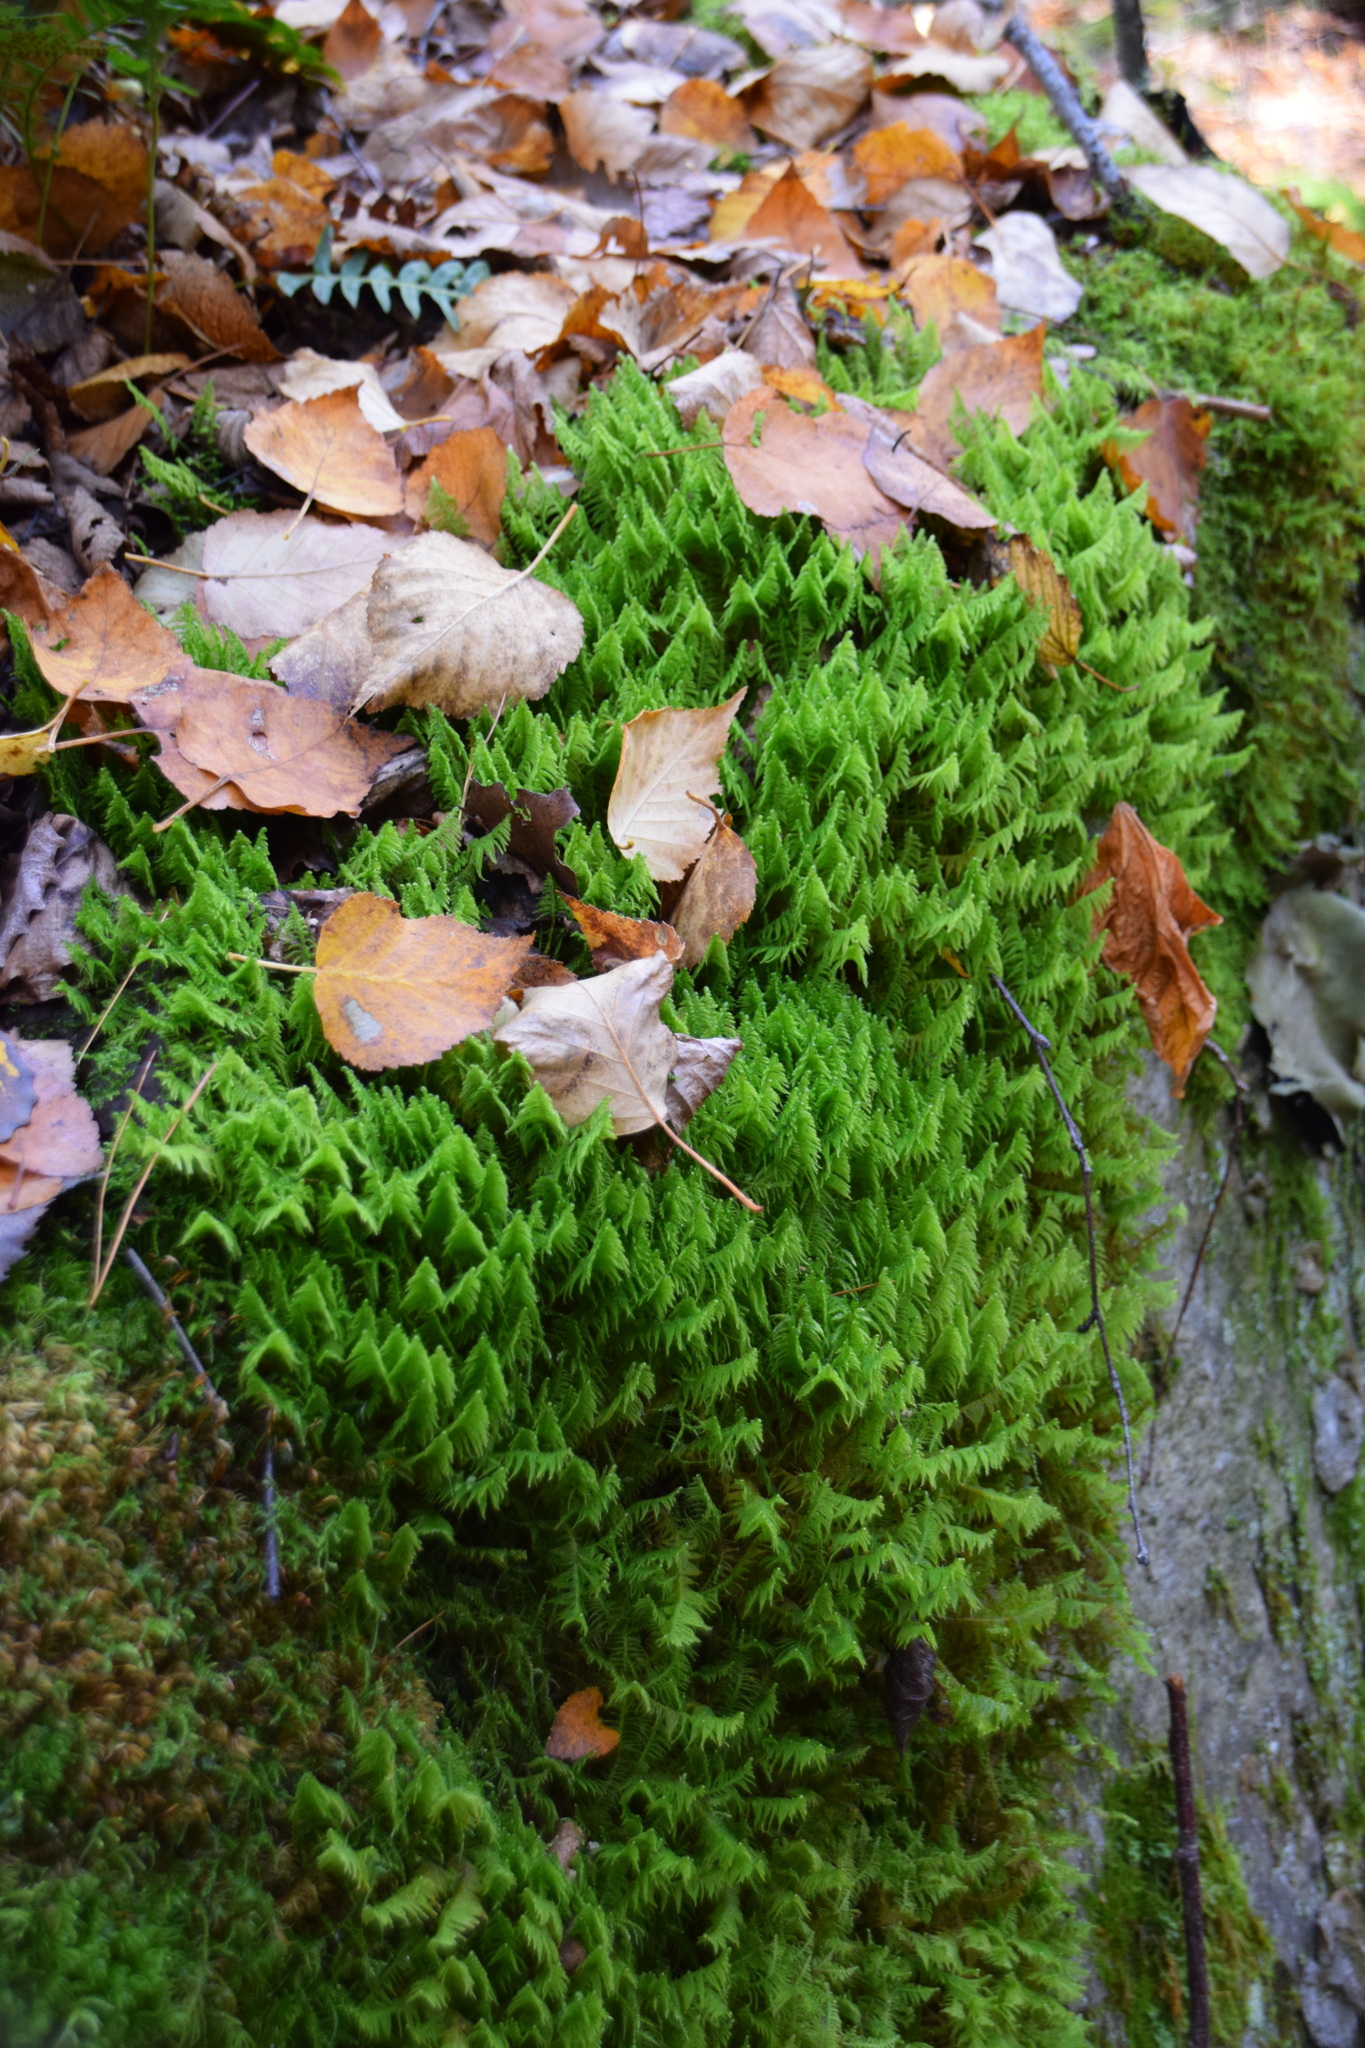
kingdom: Plantae
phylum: Bryophyta
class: Bryopsida
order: Hypnales
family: Pylaisiaceae
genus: Ptilium
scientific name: Ptilium crista-castrensis
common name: Knight's plume moss
